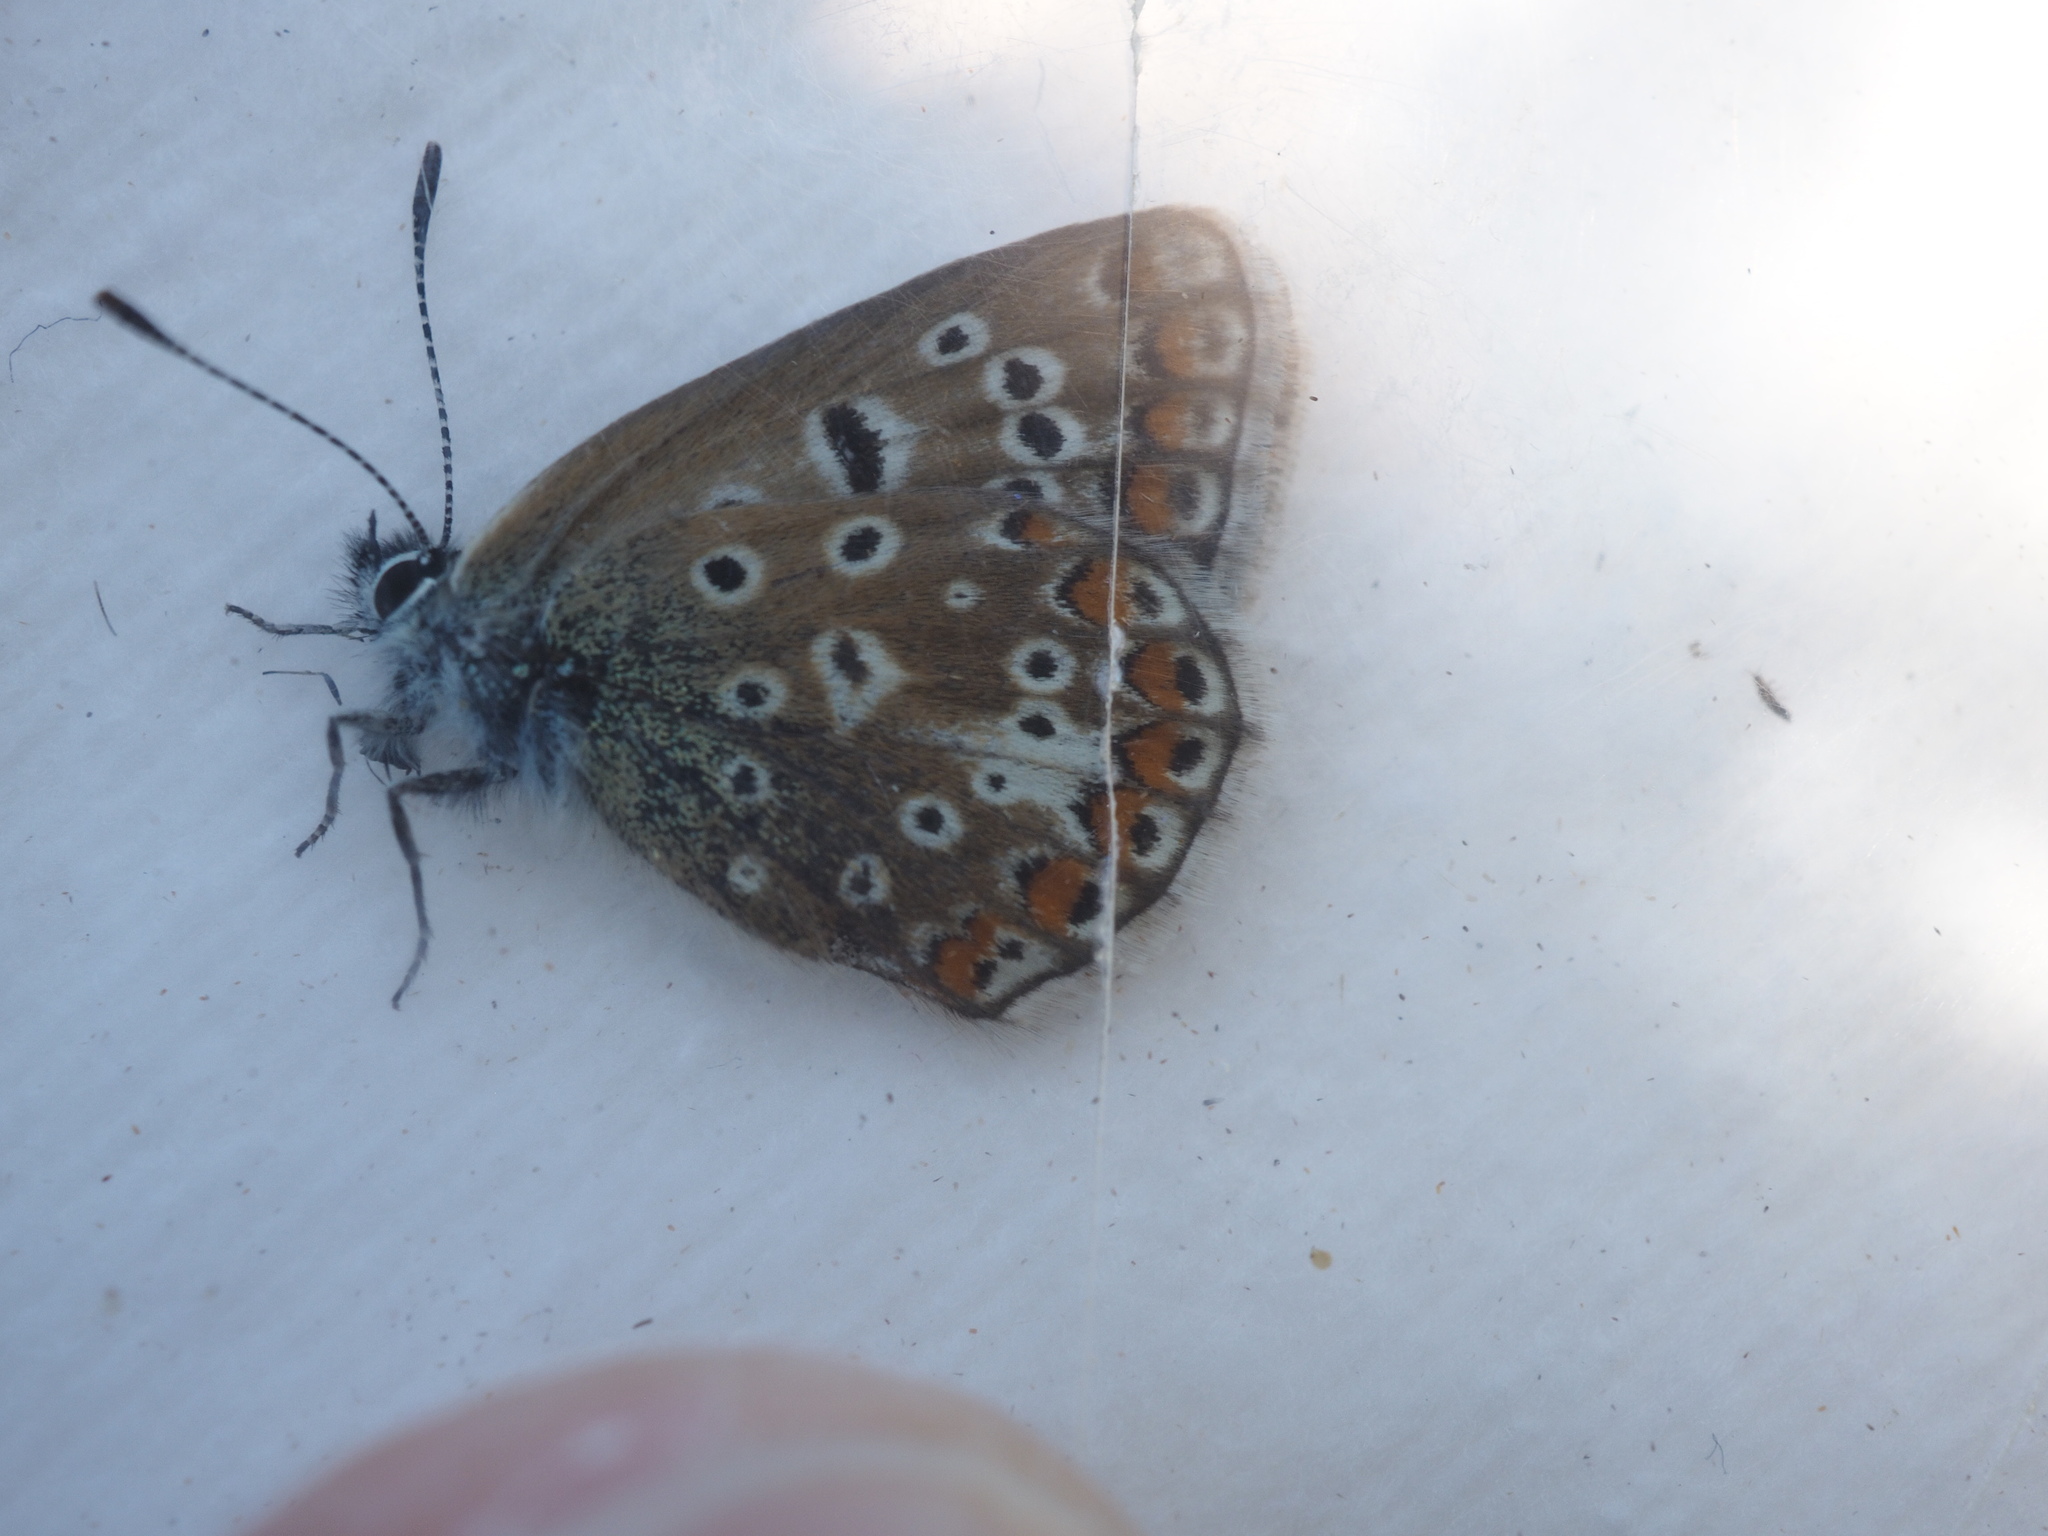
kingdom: Animalia
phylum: Arthropoda
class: Insecta
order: Lepidoptera
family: Lycaenidae
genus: Polyommatus
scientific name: Polyommatus icarus
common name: Common blue
